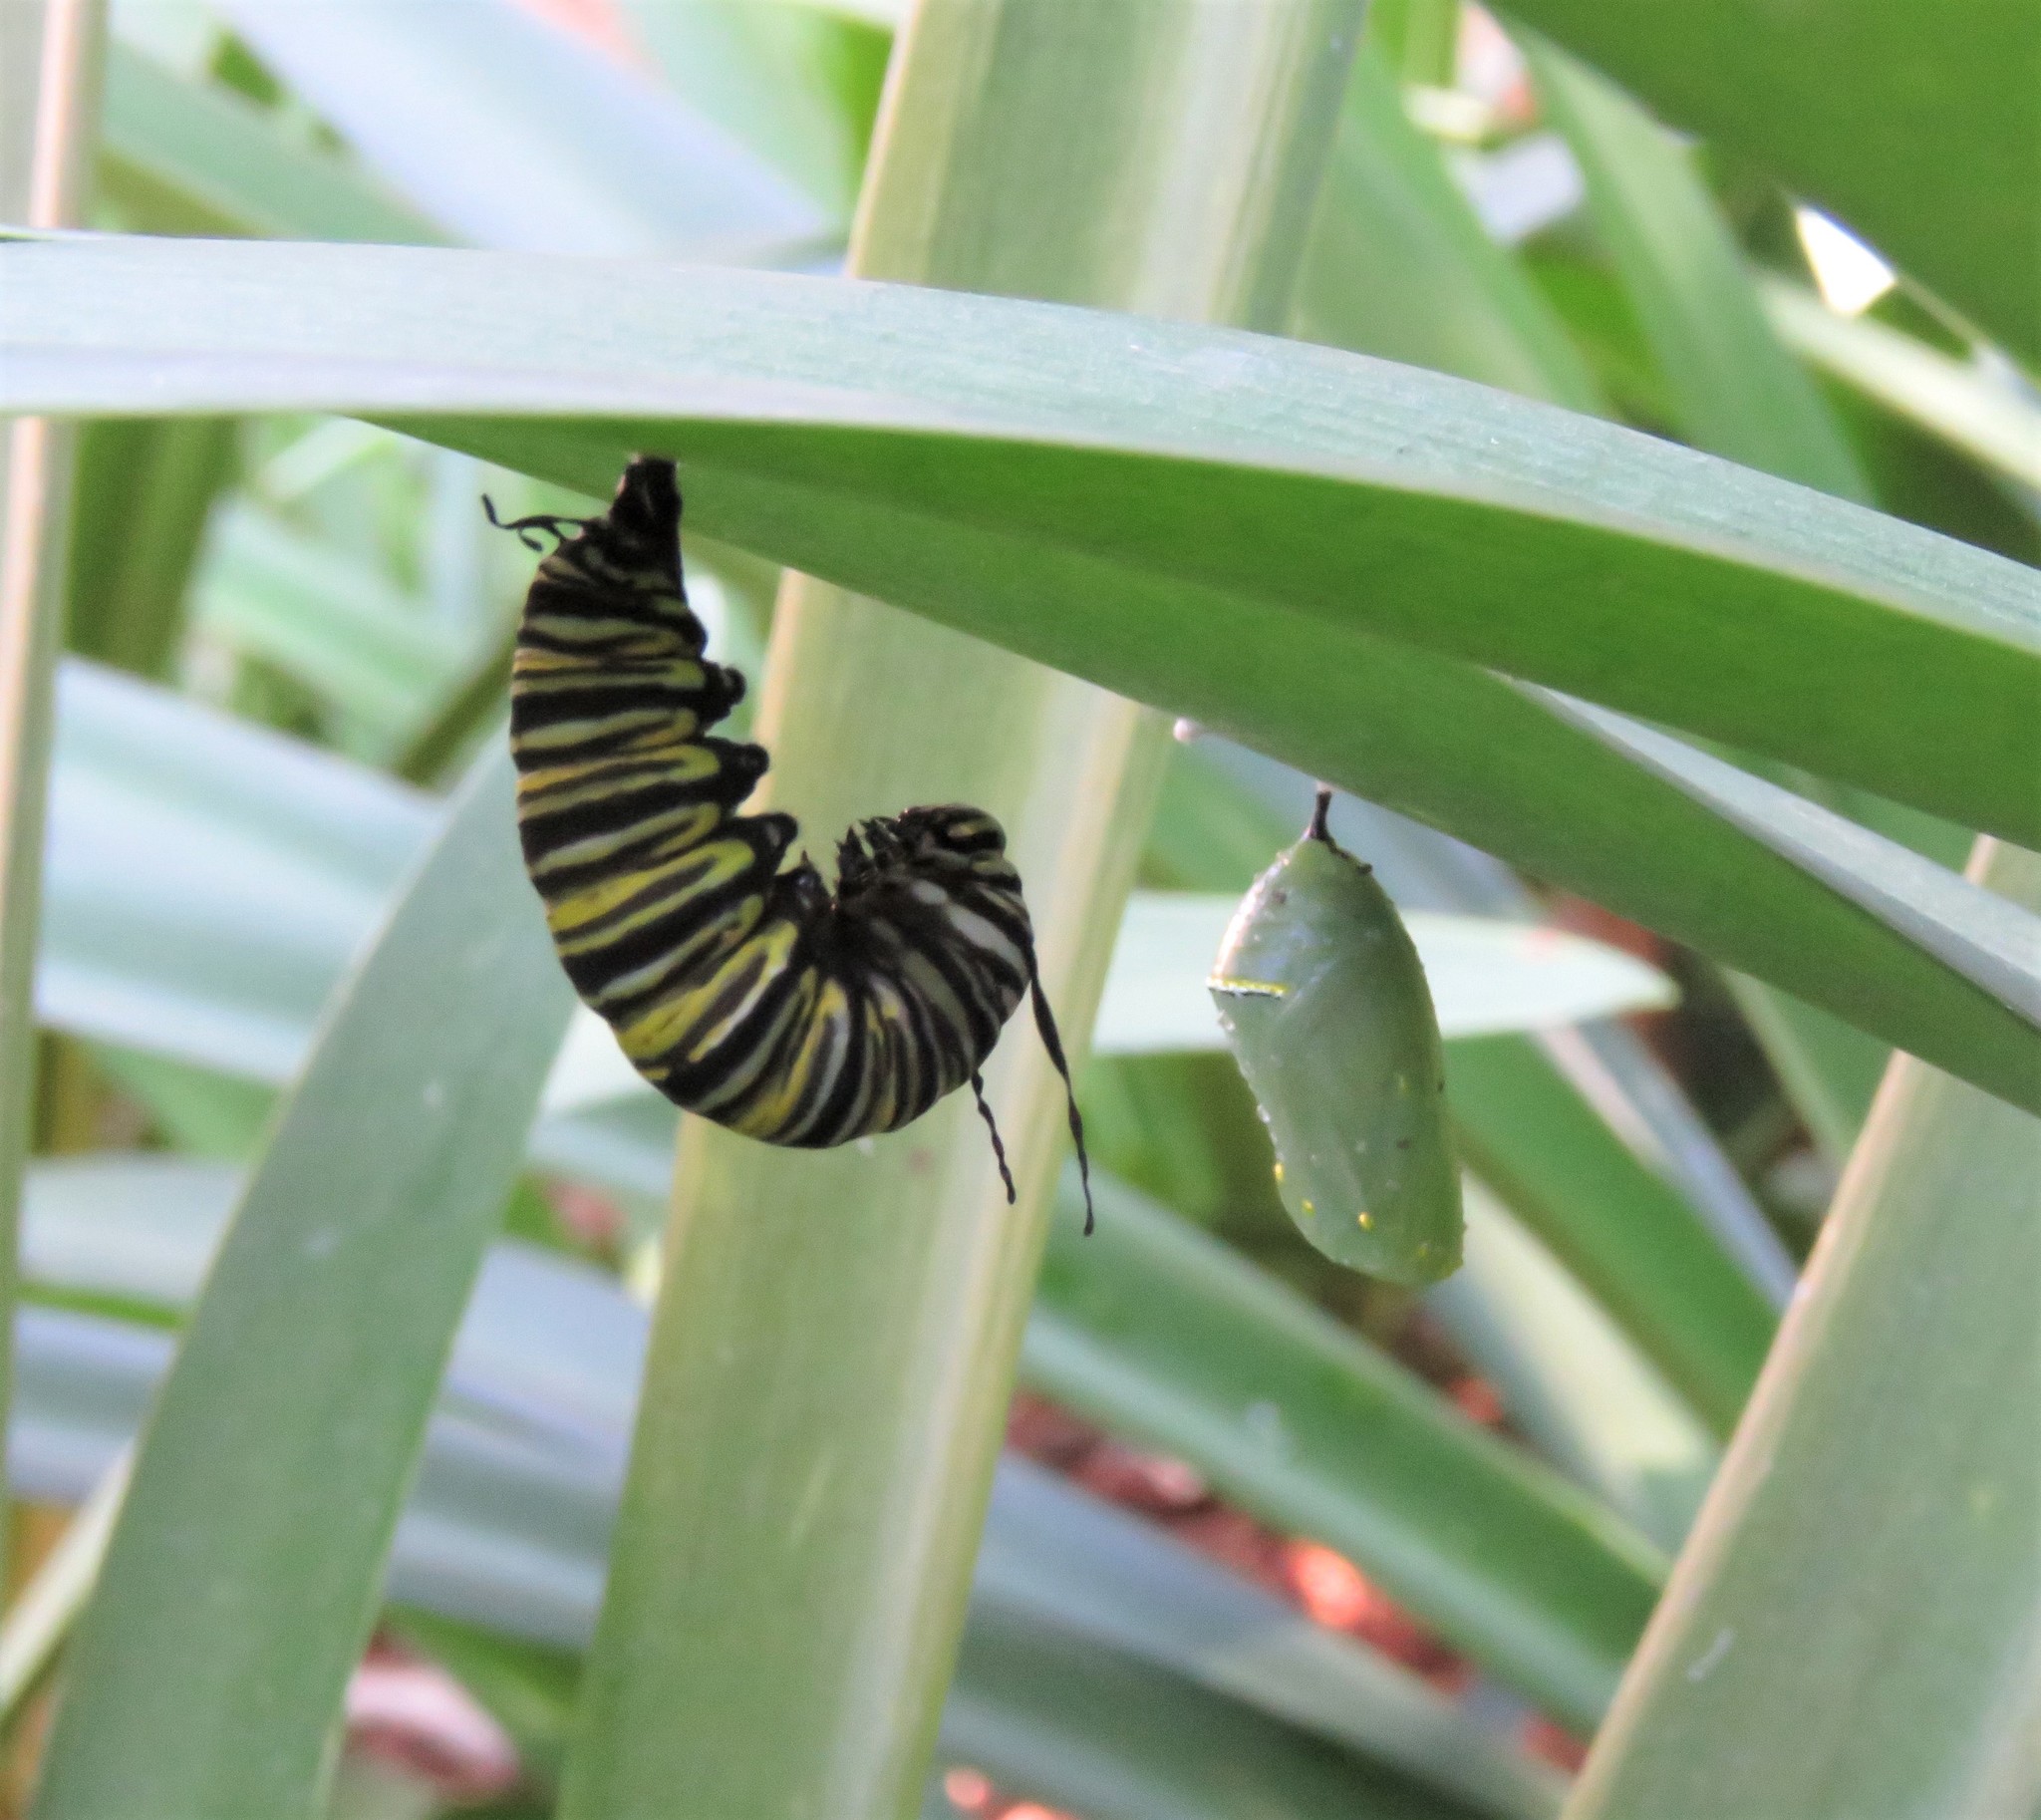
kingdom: Animalia
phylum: Arthropoda
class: Insecta
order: Lepidoptera
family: Nymphalidae
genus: Danaus
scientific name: Danaus plexippus
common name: Monarch
